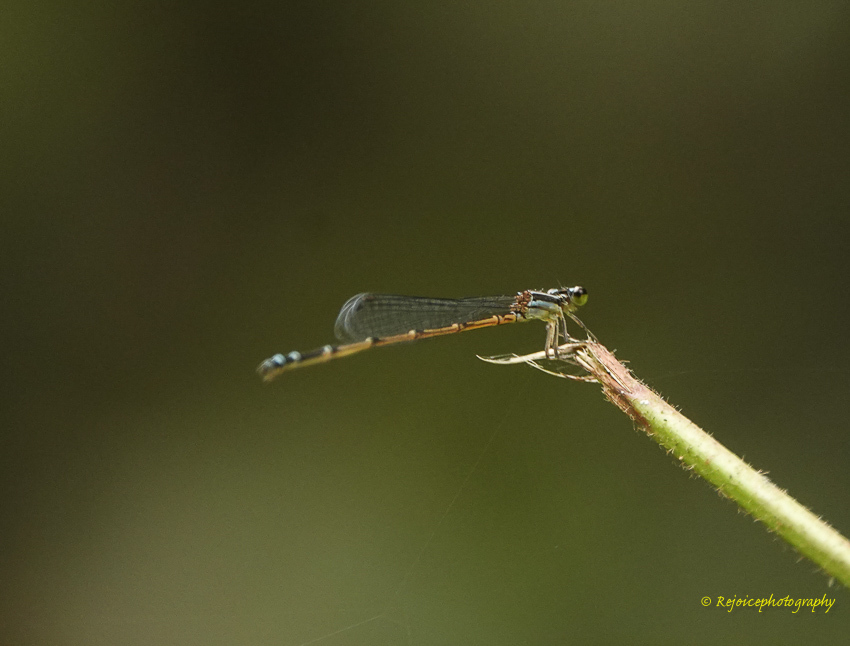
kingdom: Animalia
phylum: Arthropoda
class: Insecta
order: Odonata
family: Coenagrionidae
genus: Mortonagrion
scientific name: Mortonagrion aborense
